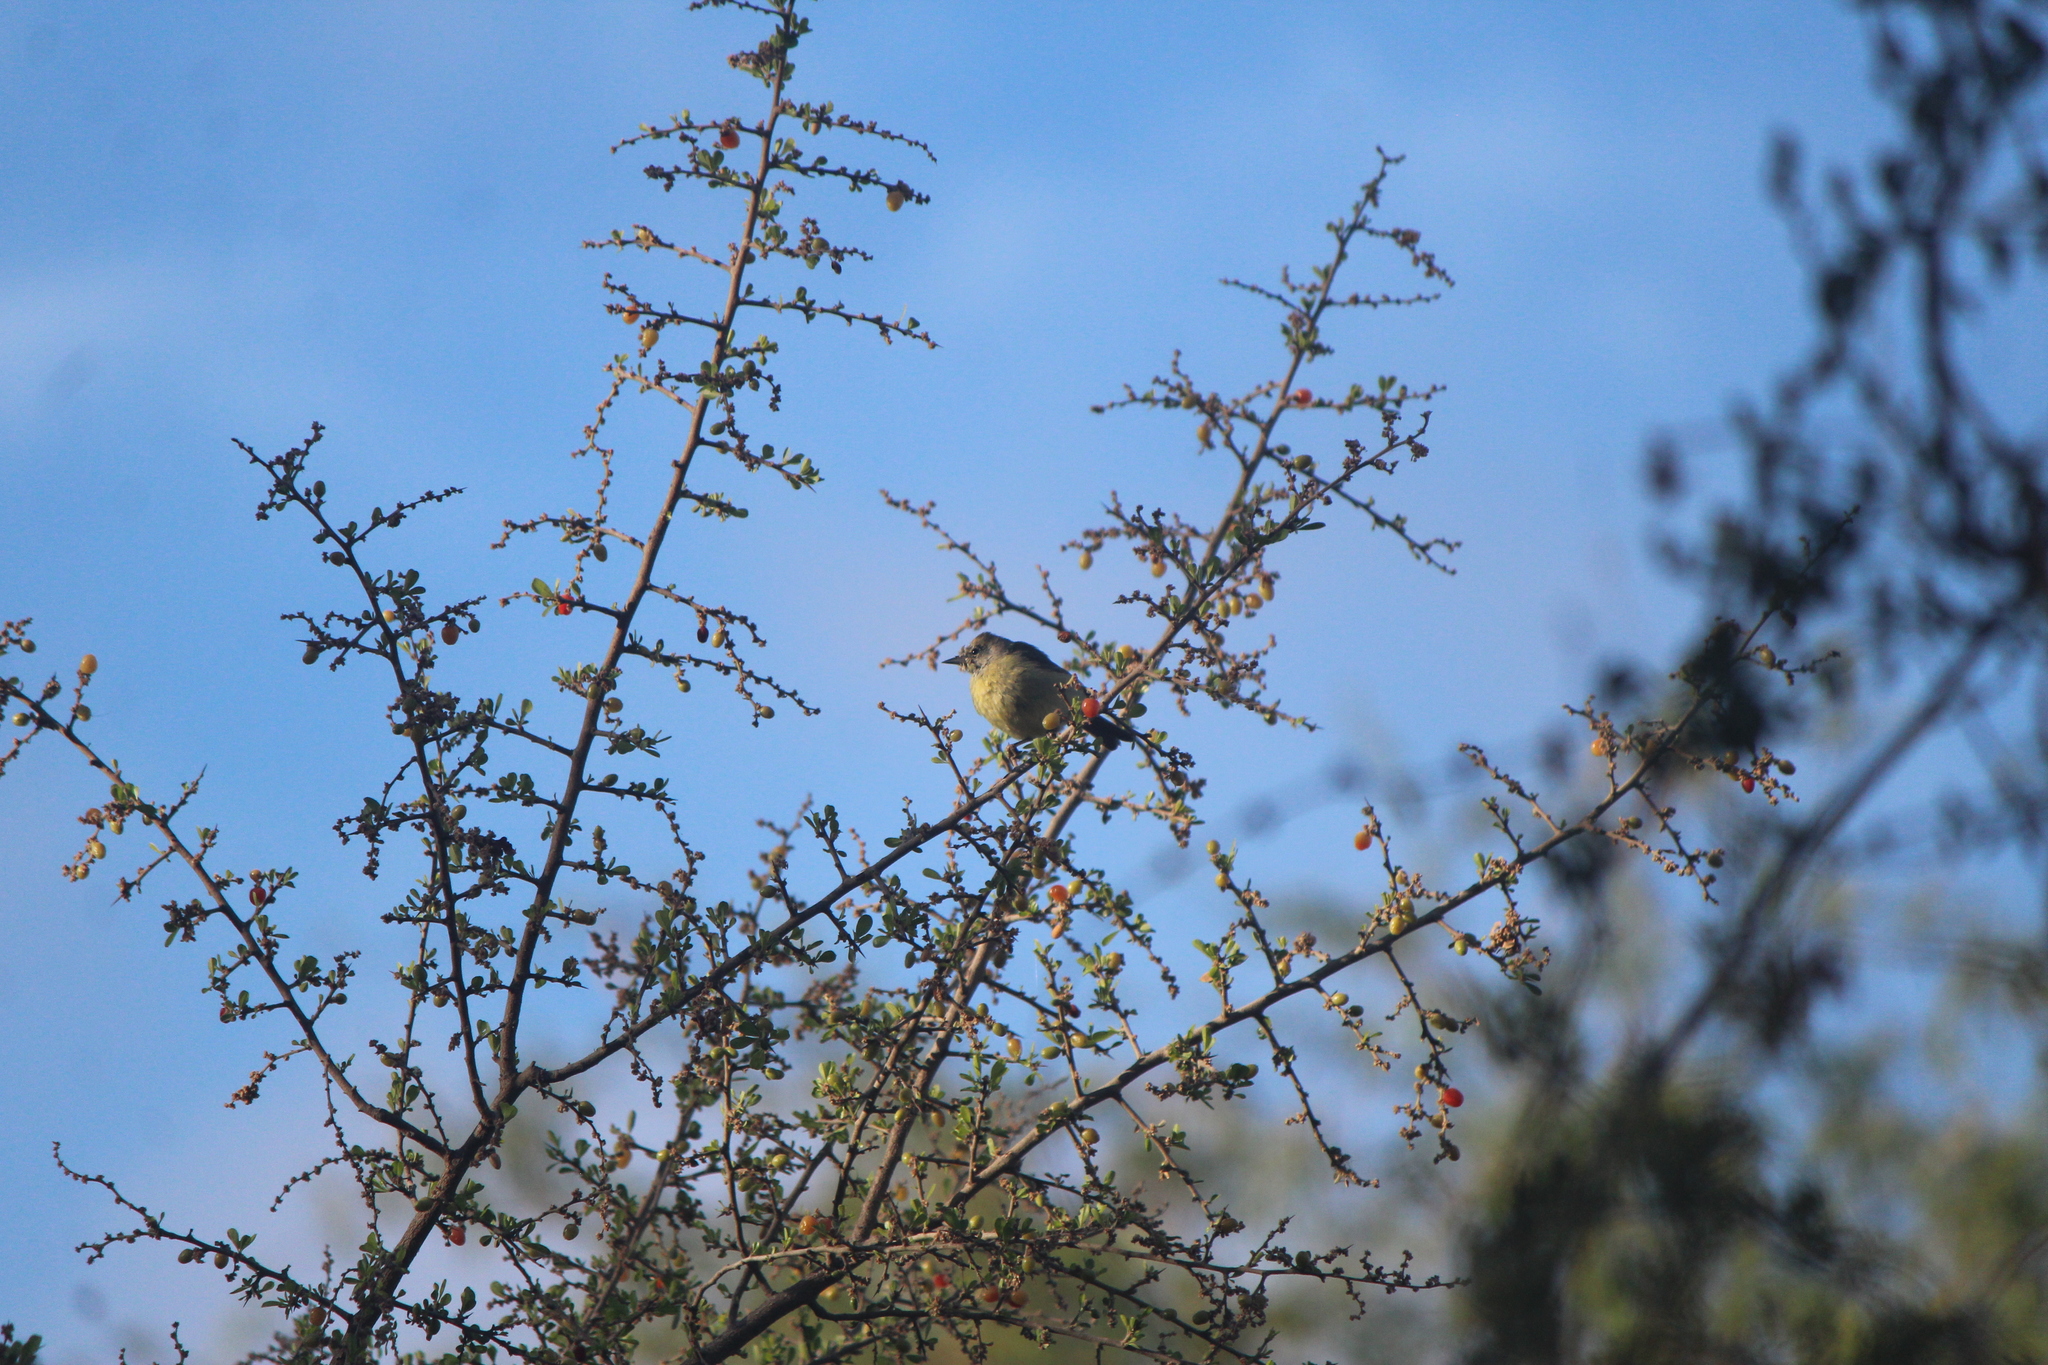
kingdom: Animalia
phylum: Chordata
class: Aves
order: Passeriformes
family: Parulidae
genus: Leiothlypis
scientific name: Leiothlypis celata
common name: Orange-crowned warbler
